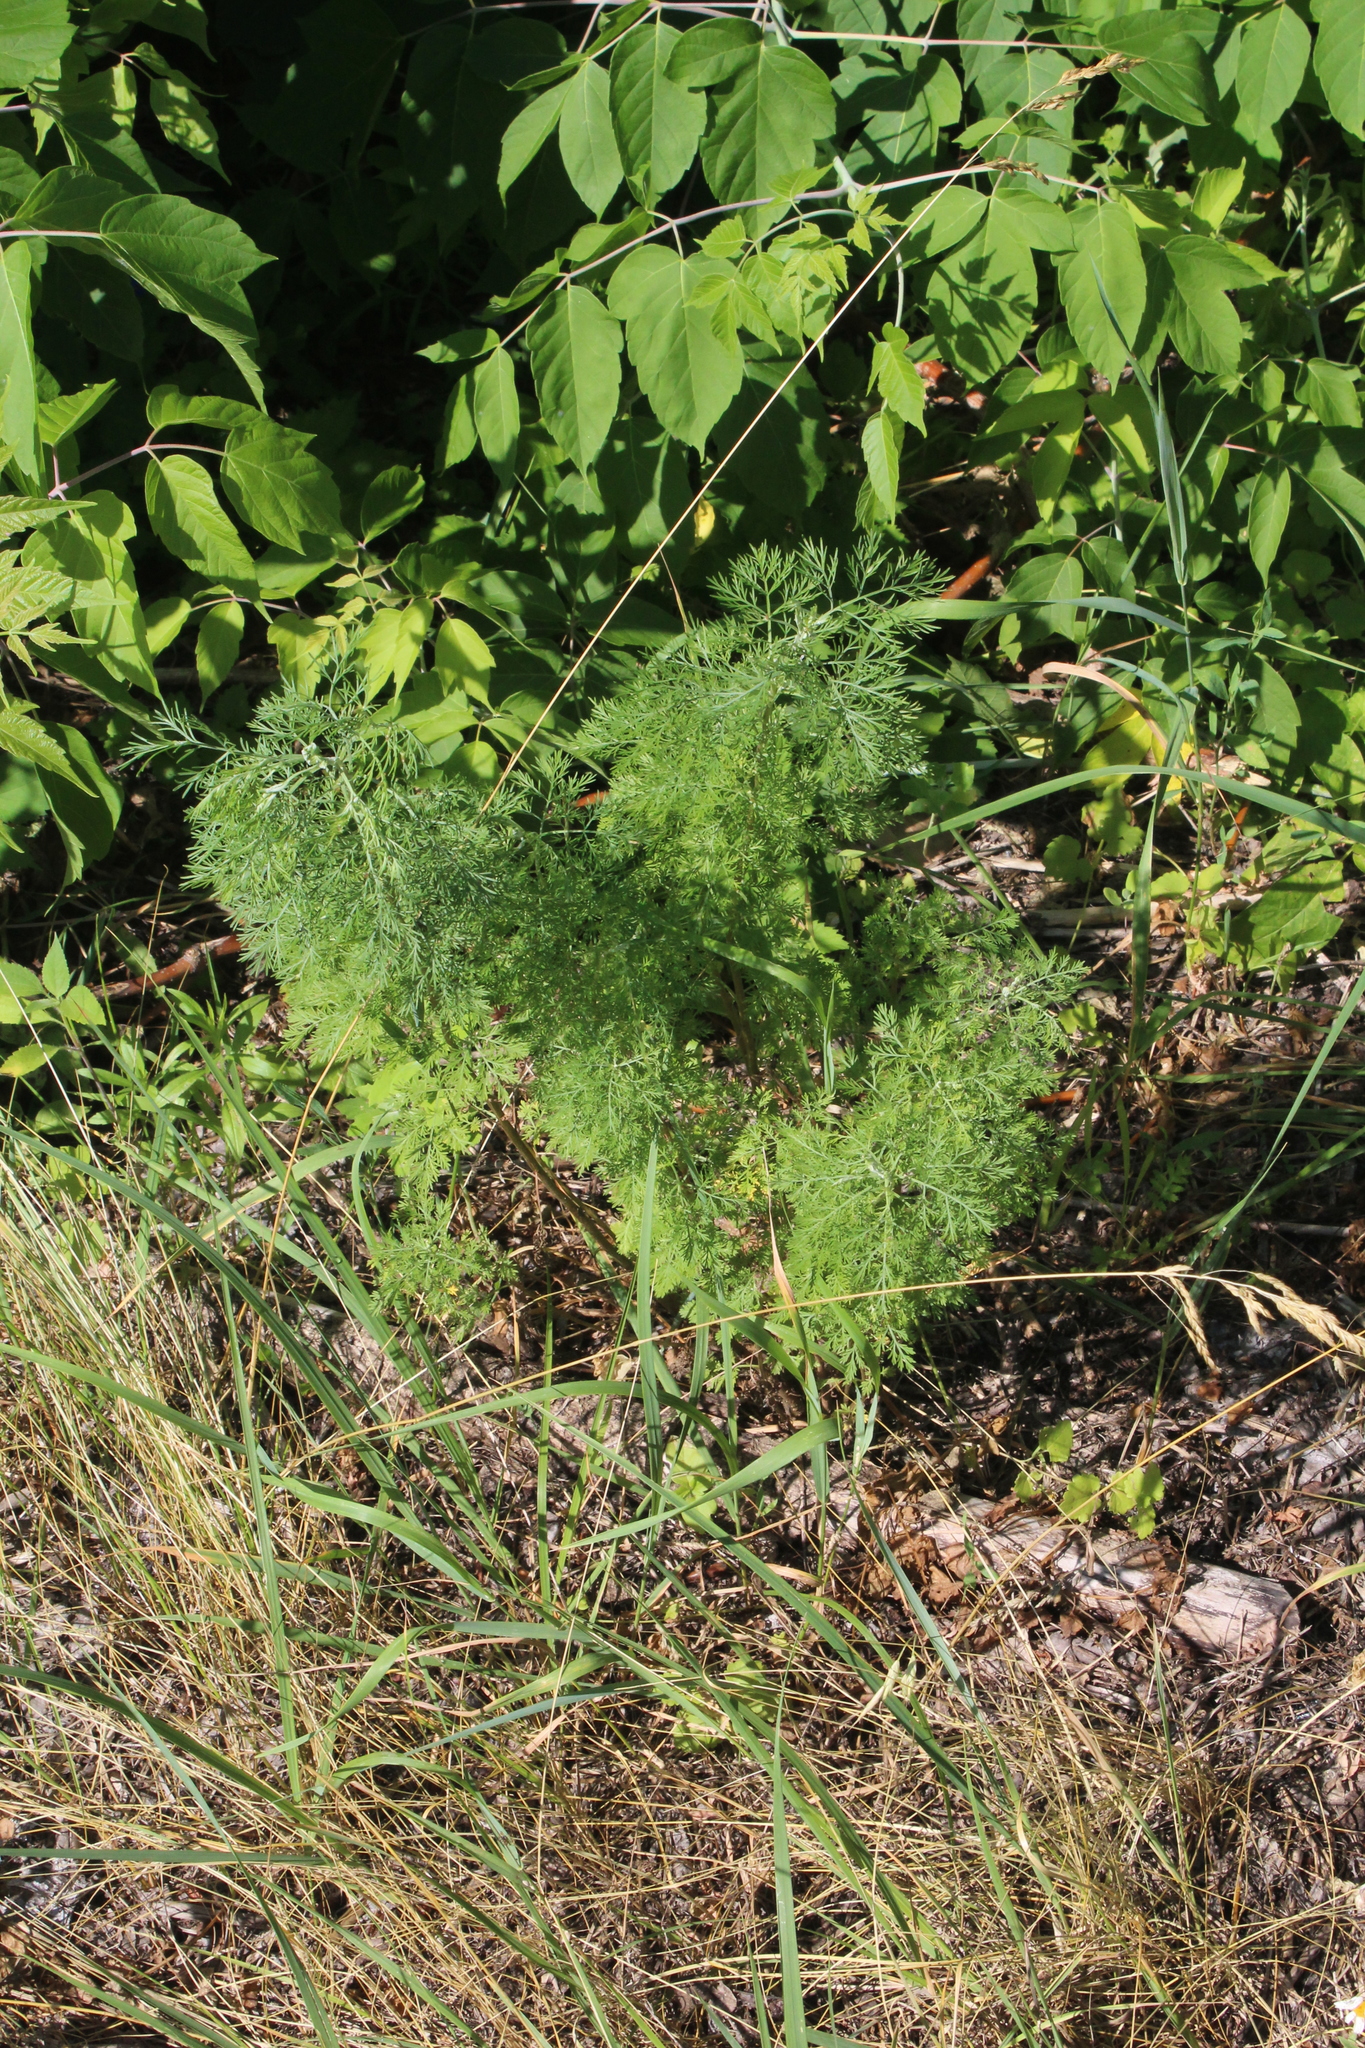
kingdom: Plantae
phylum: Tracheophyta
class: Magnoliopsida
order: Asterales
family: Asteraceae
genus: Artemisia
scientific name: Artemisia abrotanum
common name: Southernwood
